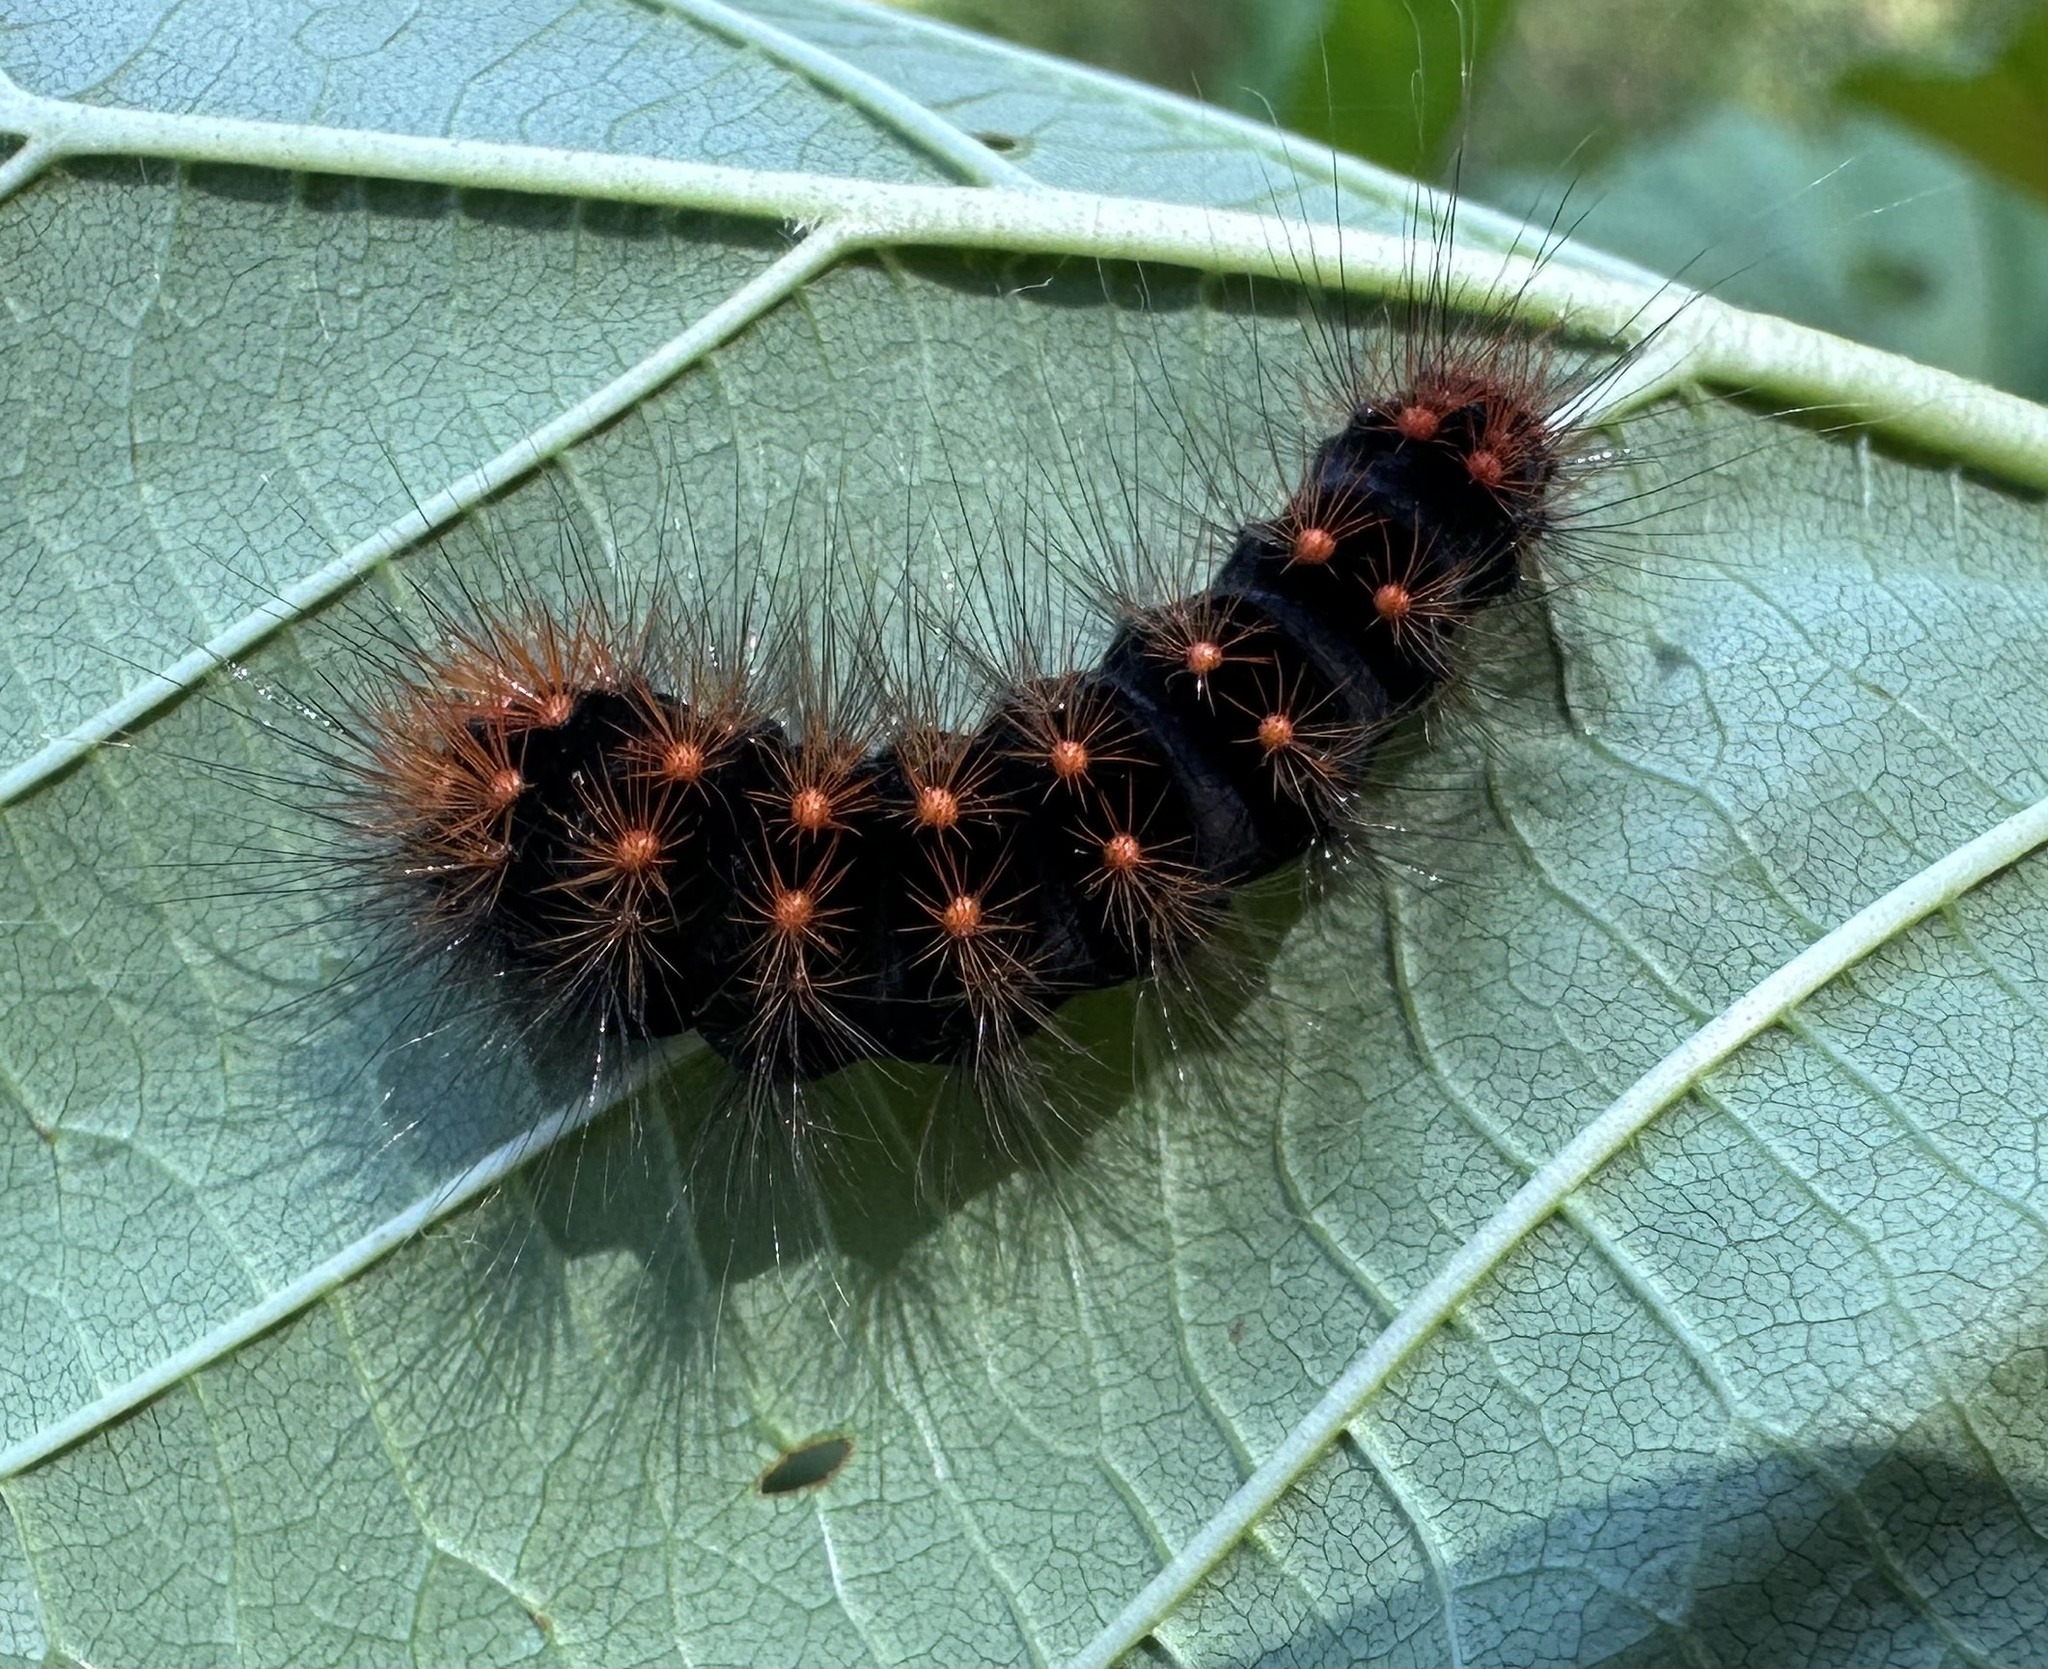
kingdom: Animalia
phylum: Arthropoda
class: Insecta
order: Lepidoptera
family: Noctuidae
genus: Acronicta
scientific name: Acronicta auricoma
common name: Scarce dagger
